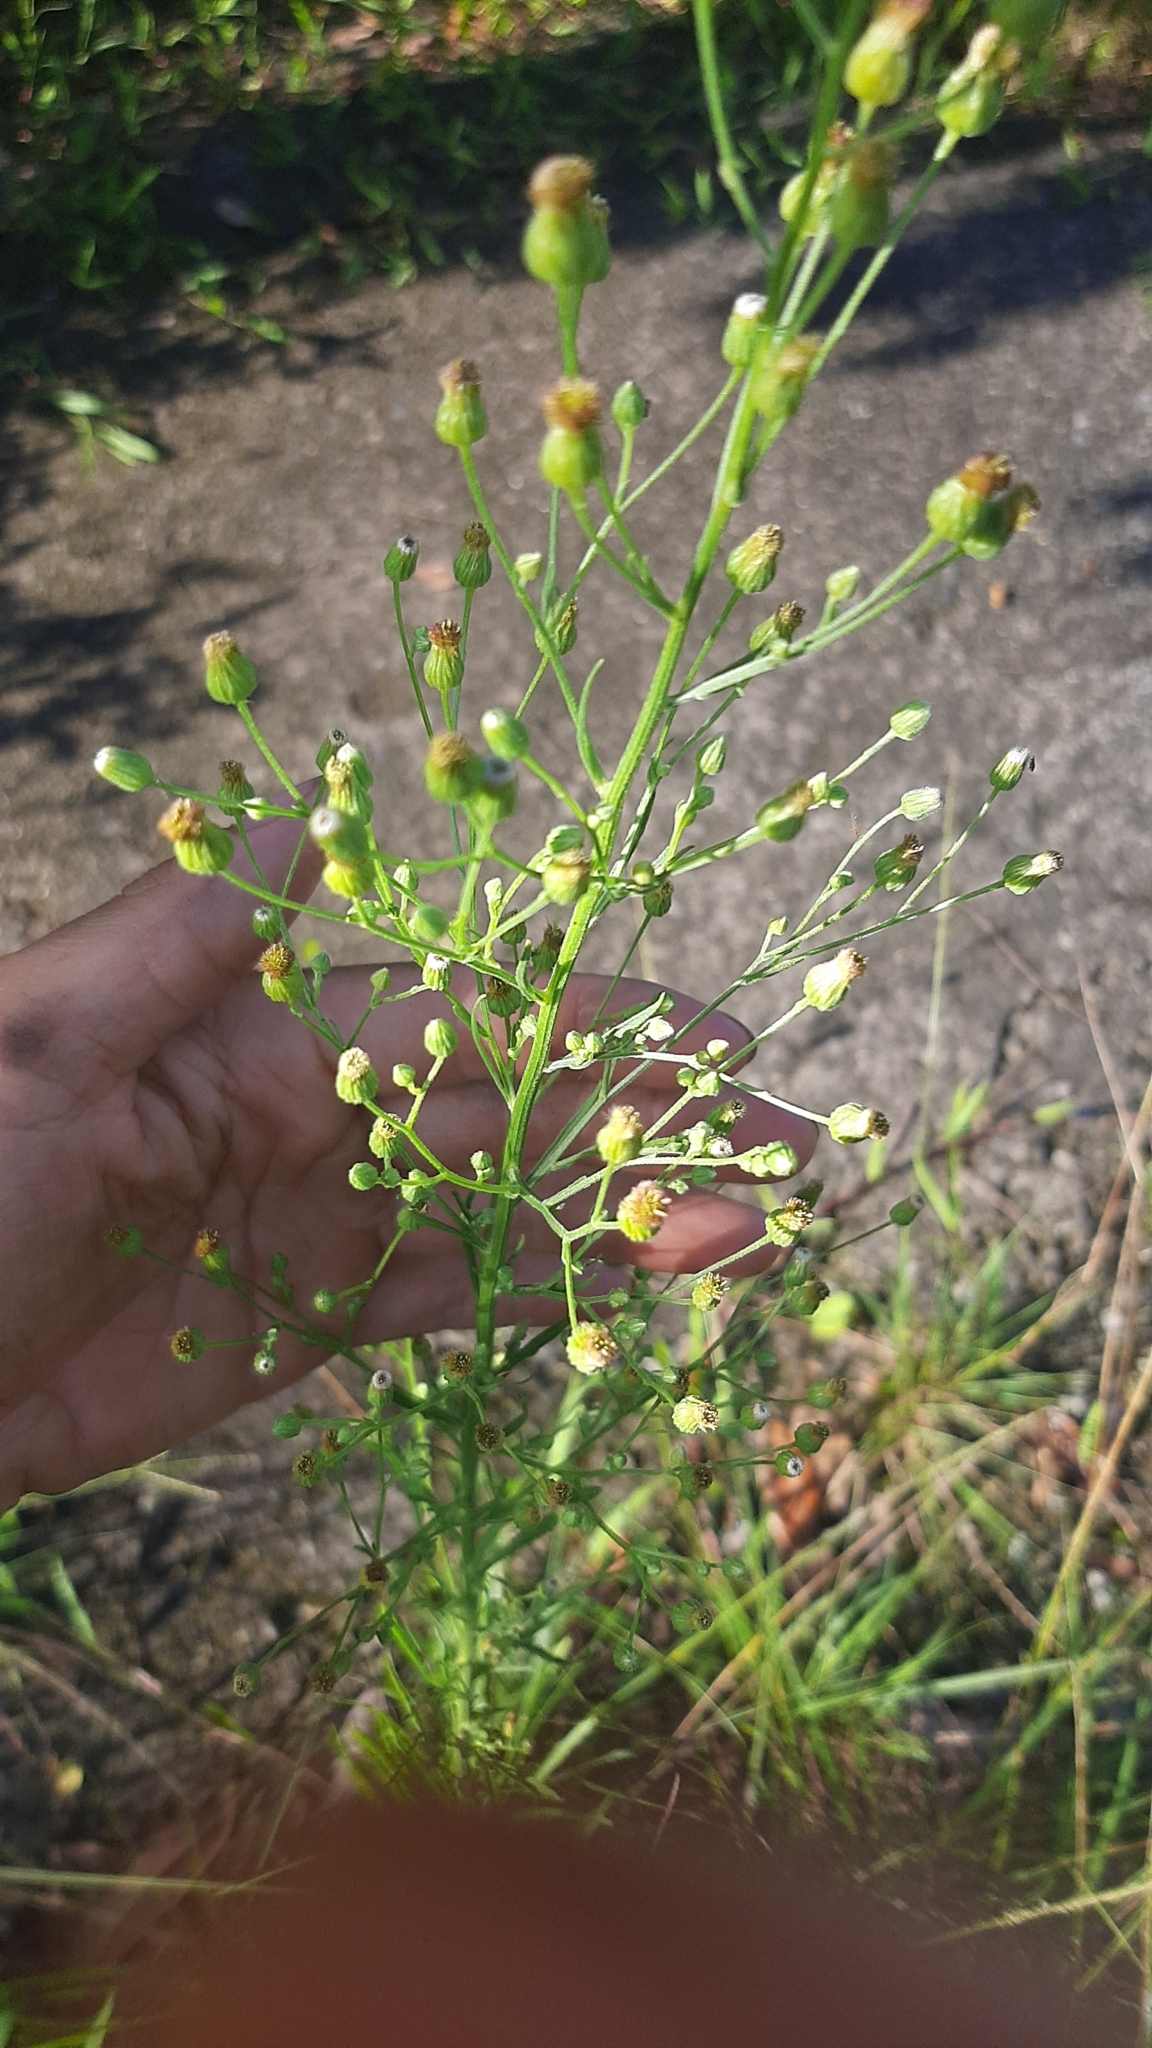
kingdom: Plantae
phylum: Tracheophyta
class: Magnoliopsida
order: Asterales
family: Asteraceae
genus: Erigeron
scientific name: Erigeron sumatrensis
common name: Daisy
